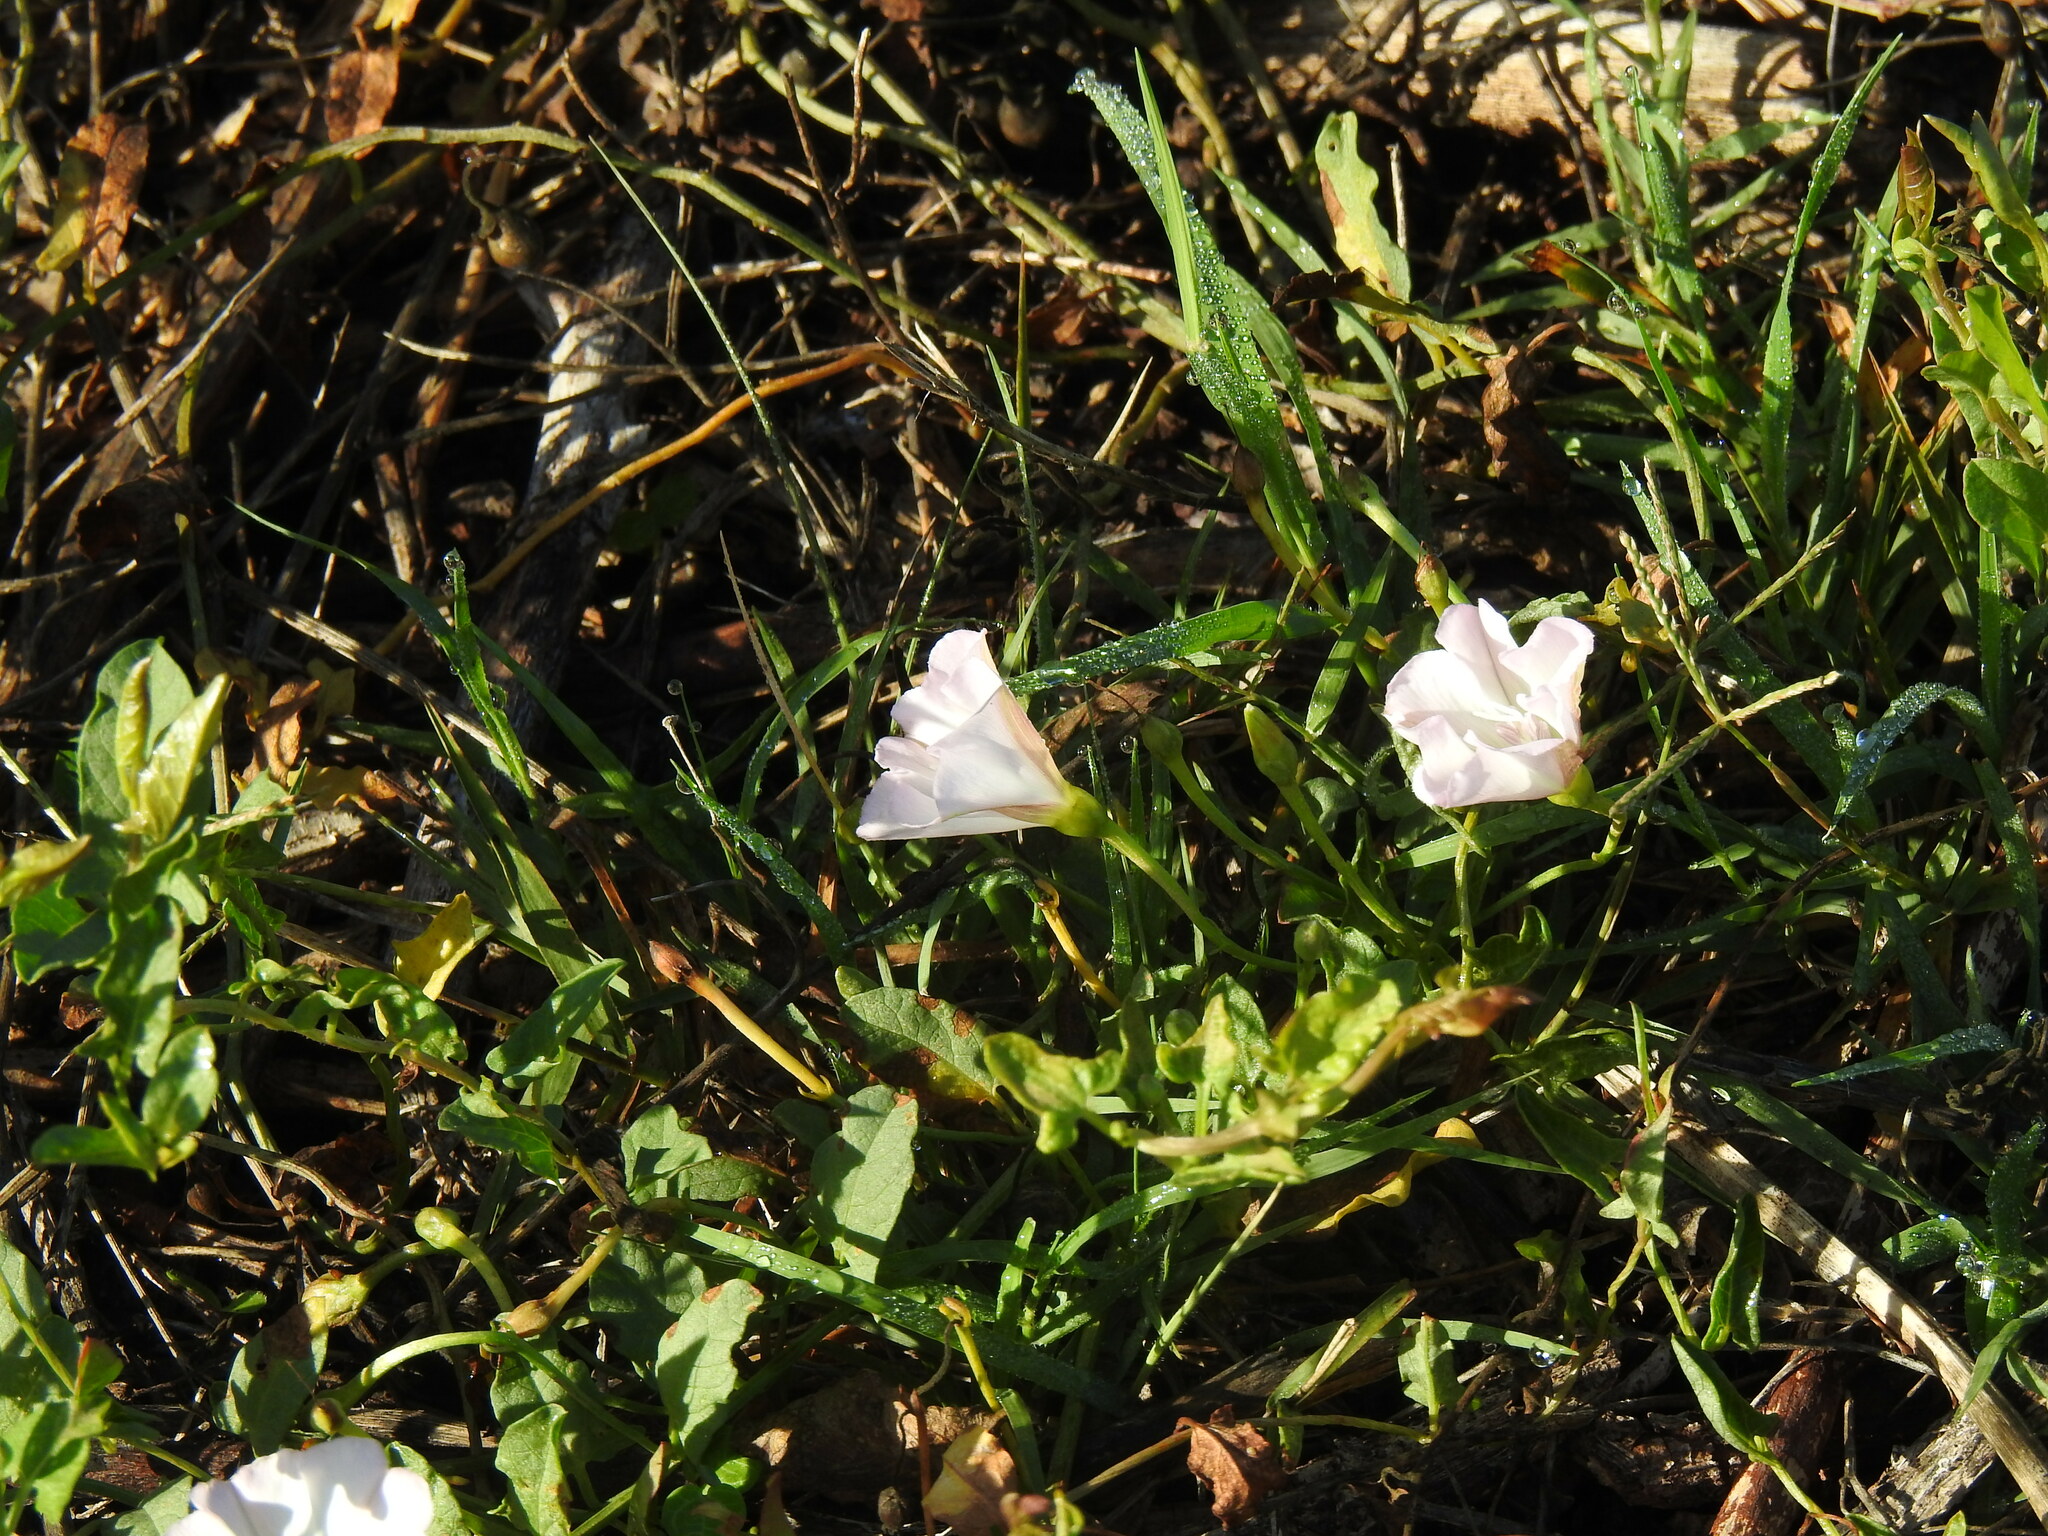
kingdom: Plantae
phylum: Tracheophyta
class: Magnoliopsida
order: Solanales
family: Convolvulaceae
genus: Convolvulus
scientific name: Convolvulus arvensis
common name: Field bindweed
